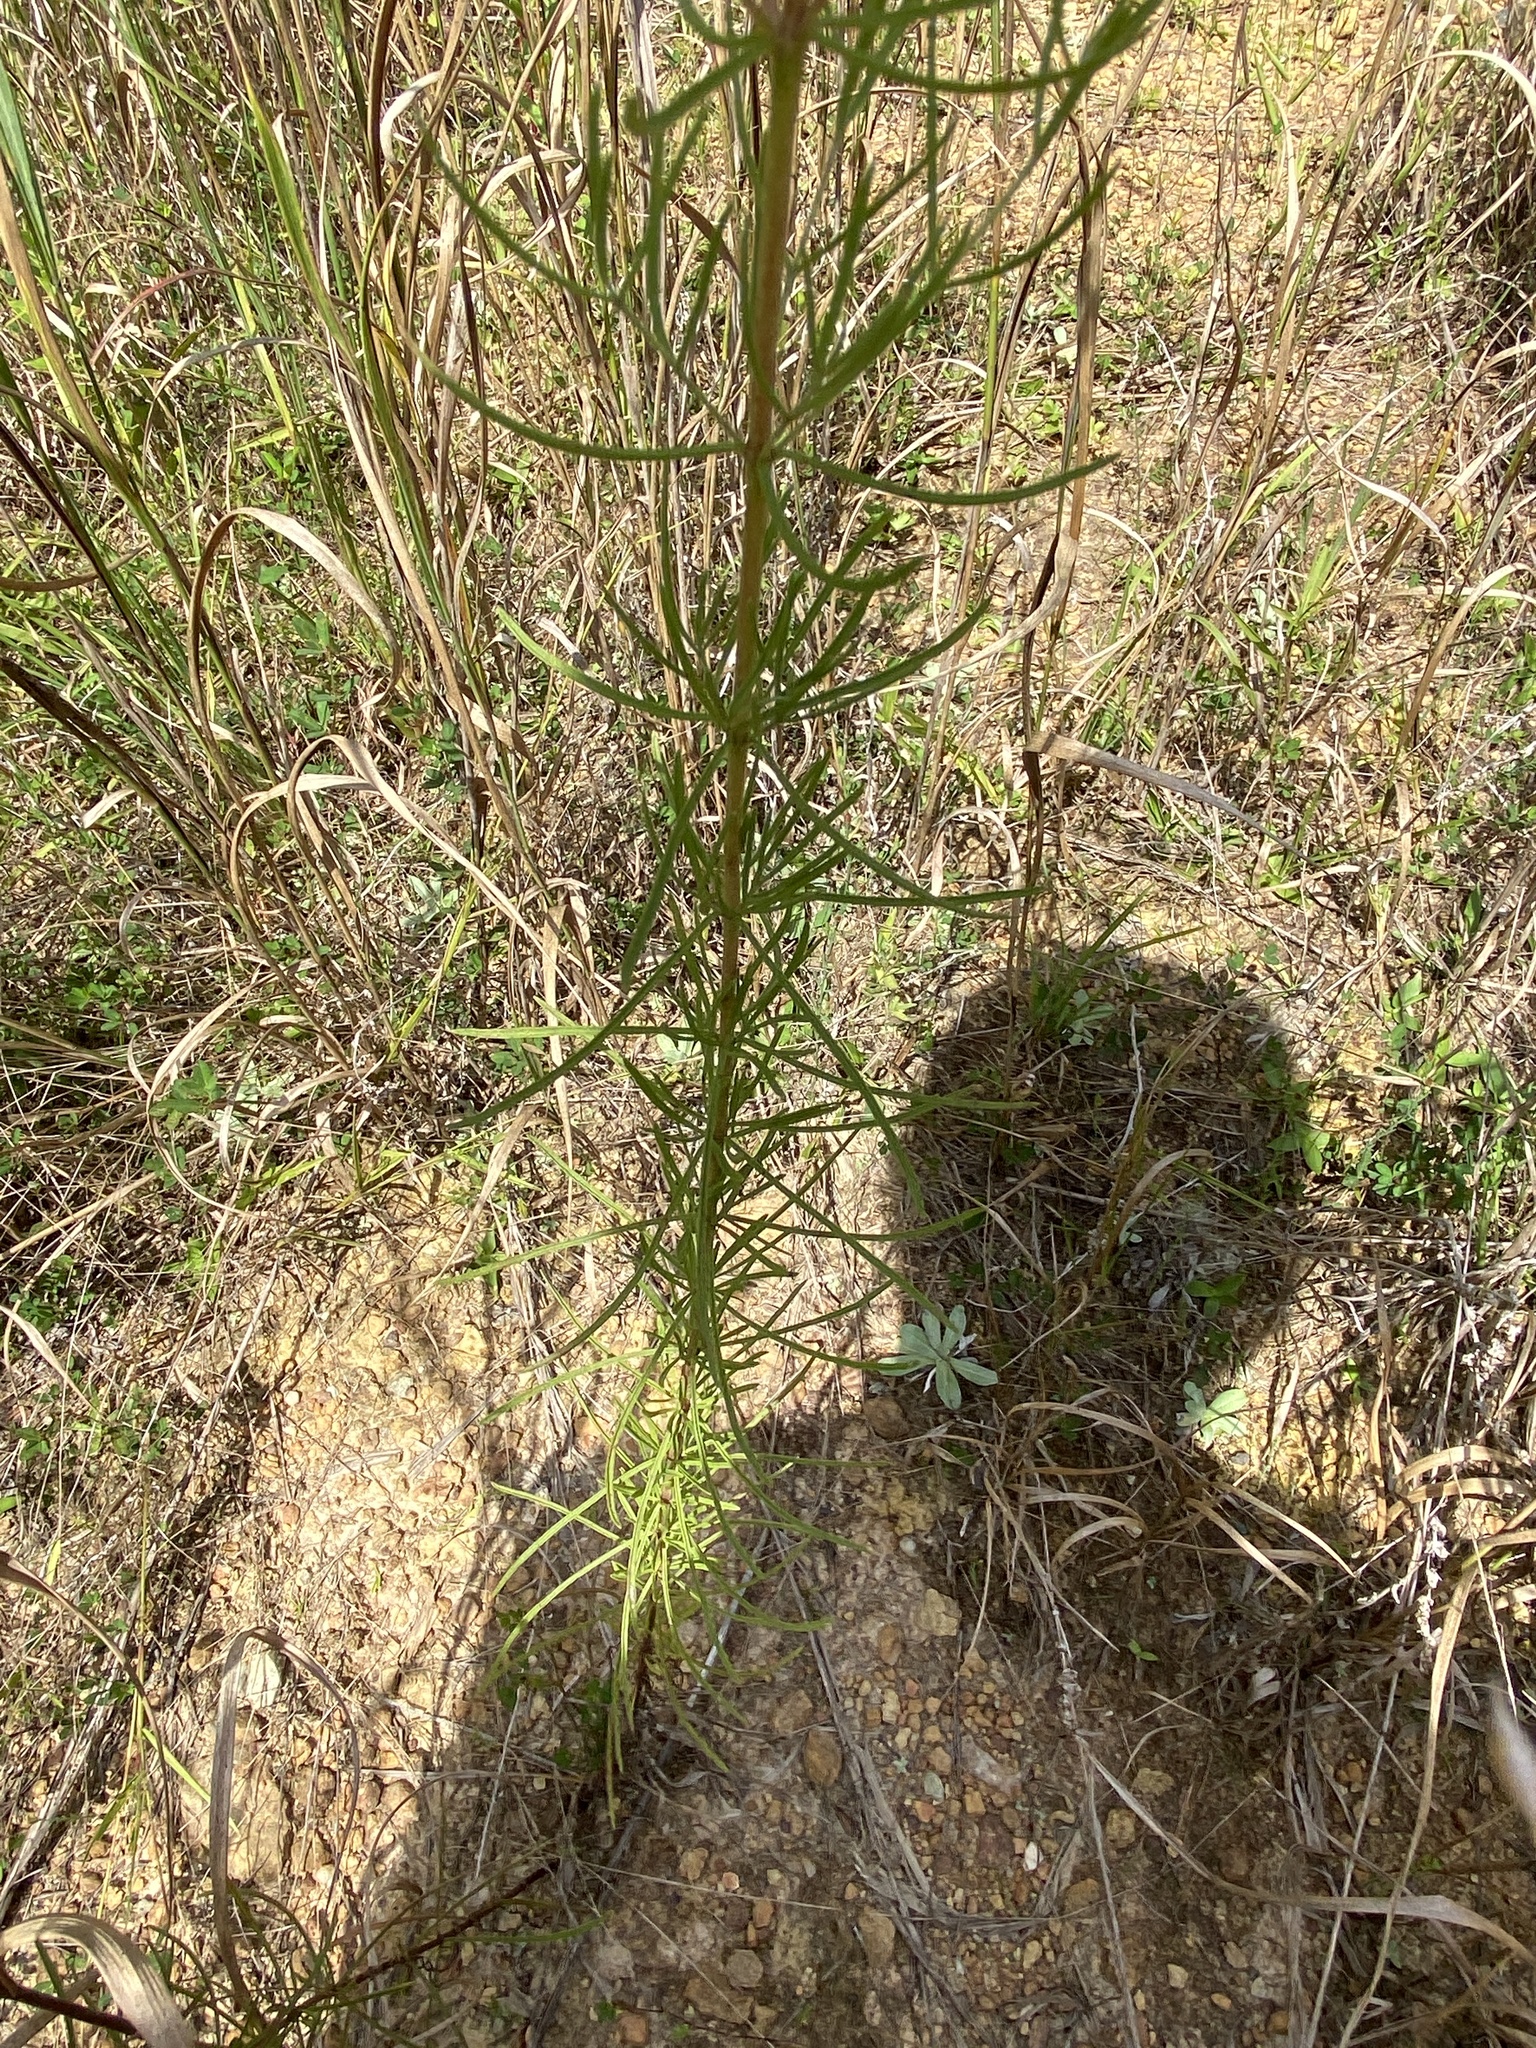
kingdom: Plantae
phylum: Tracheophyta
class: Magnoliopsida
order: Asterales
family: Asteraceae
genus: Eupatorium
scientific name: Eupatorium hyssopifolium
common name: Hyssop-leaf thoroughwort
